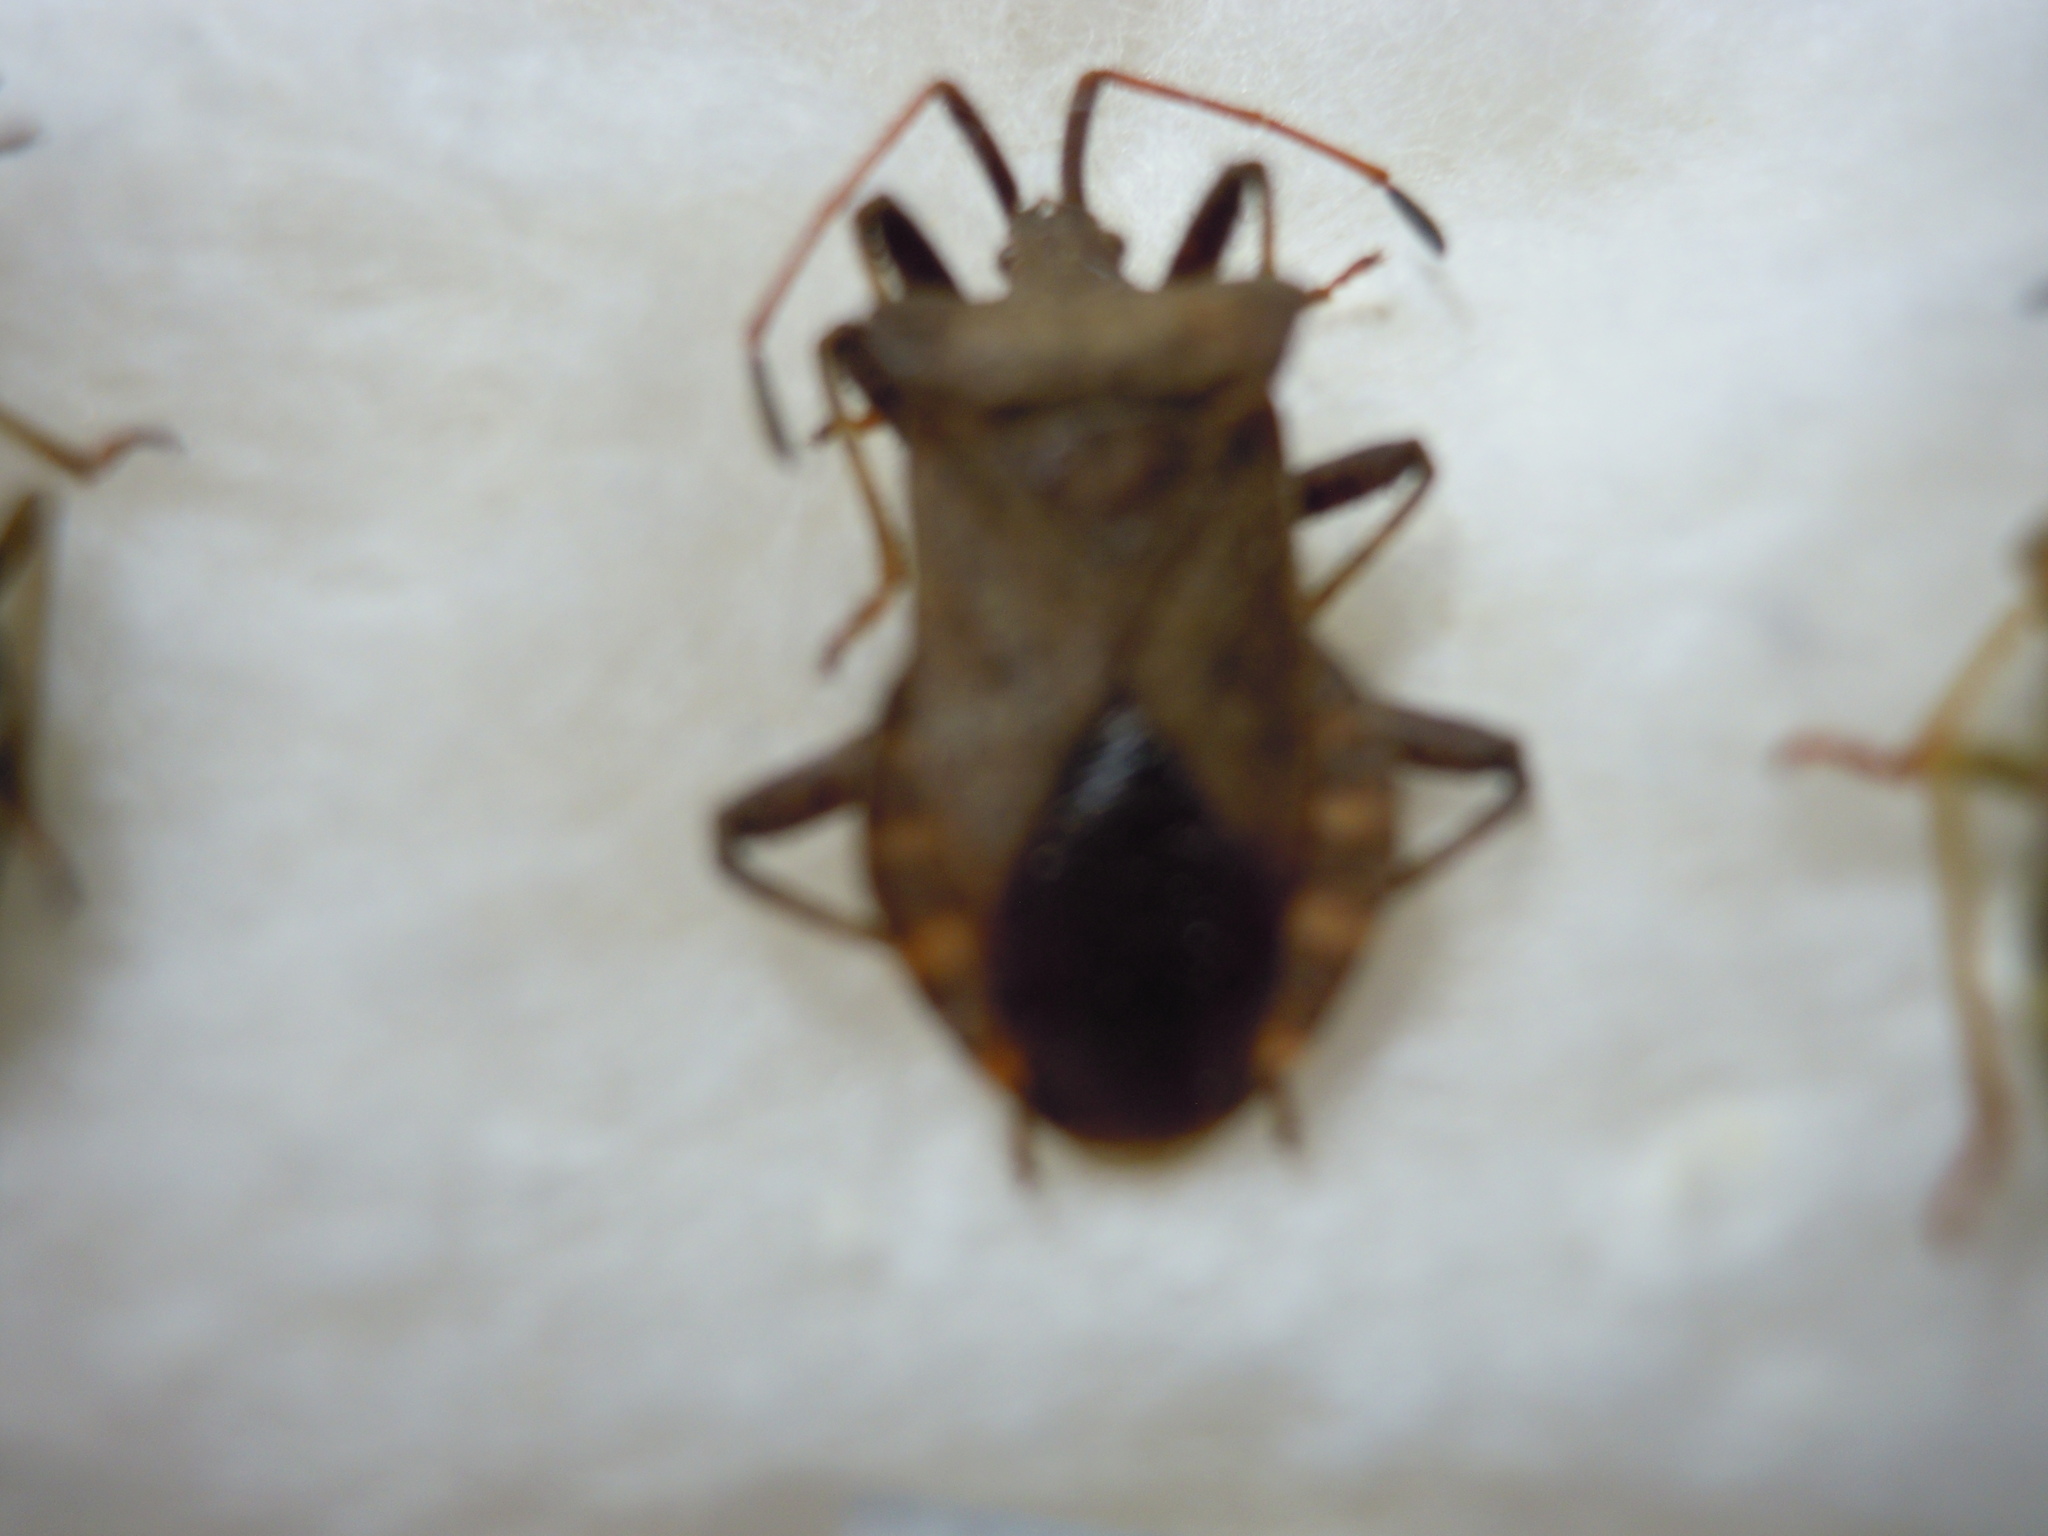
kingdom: Animalia
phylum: Arthropoda
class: Insecta
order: Hemiptera
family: Coreidae
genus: Coreus
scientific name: Coreus marginatus
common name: Dock bug
